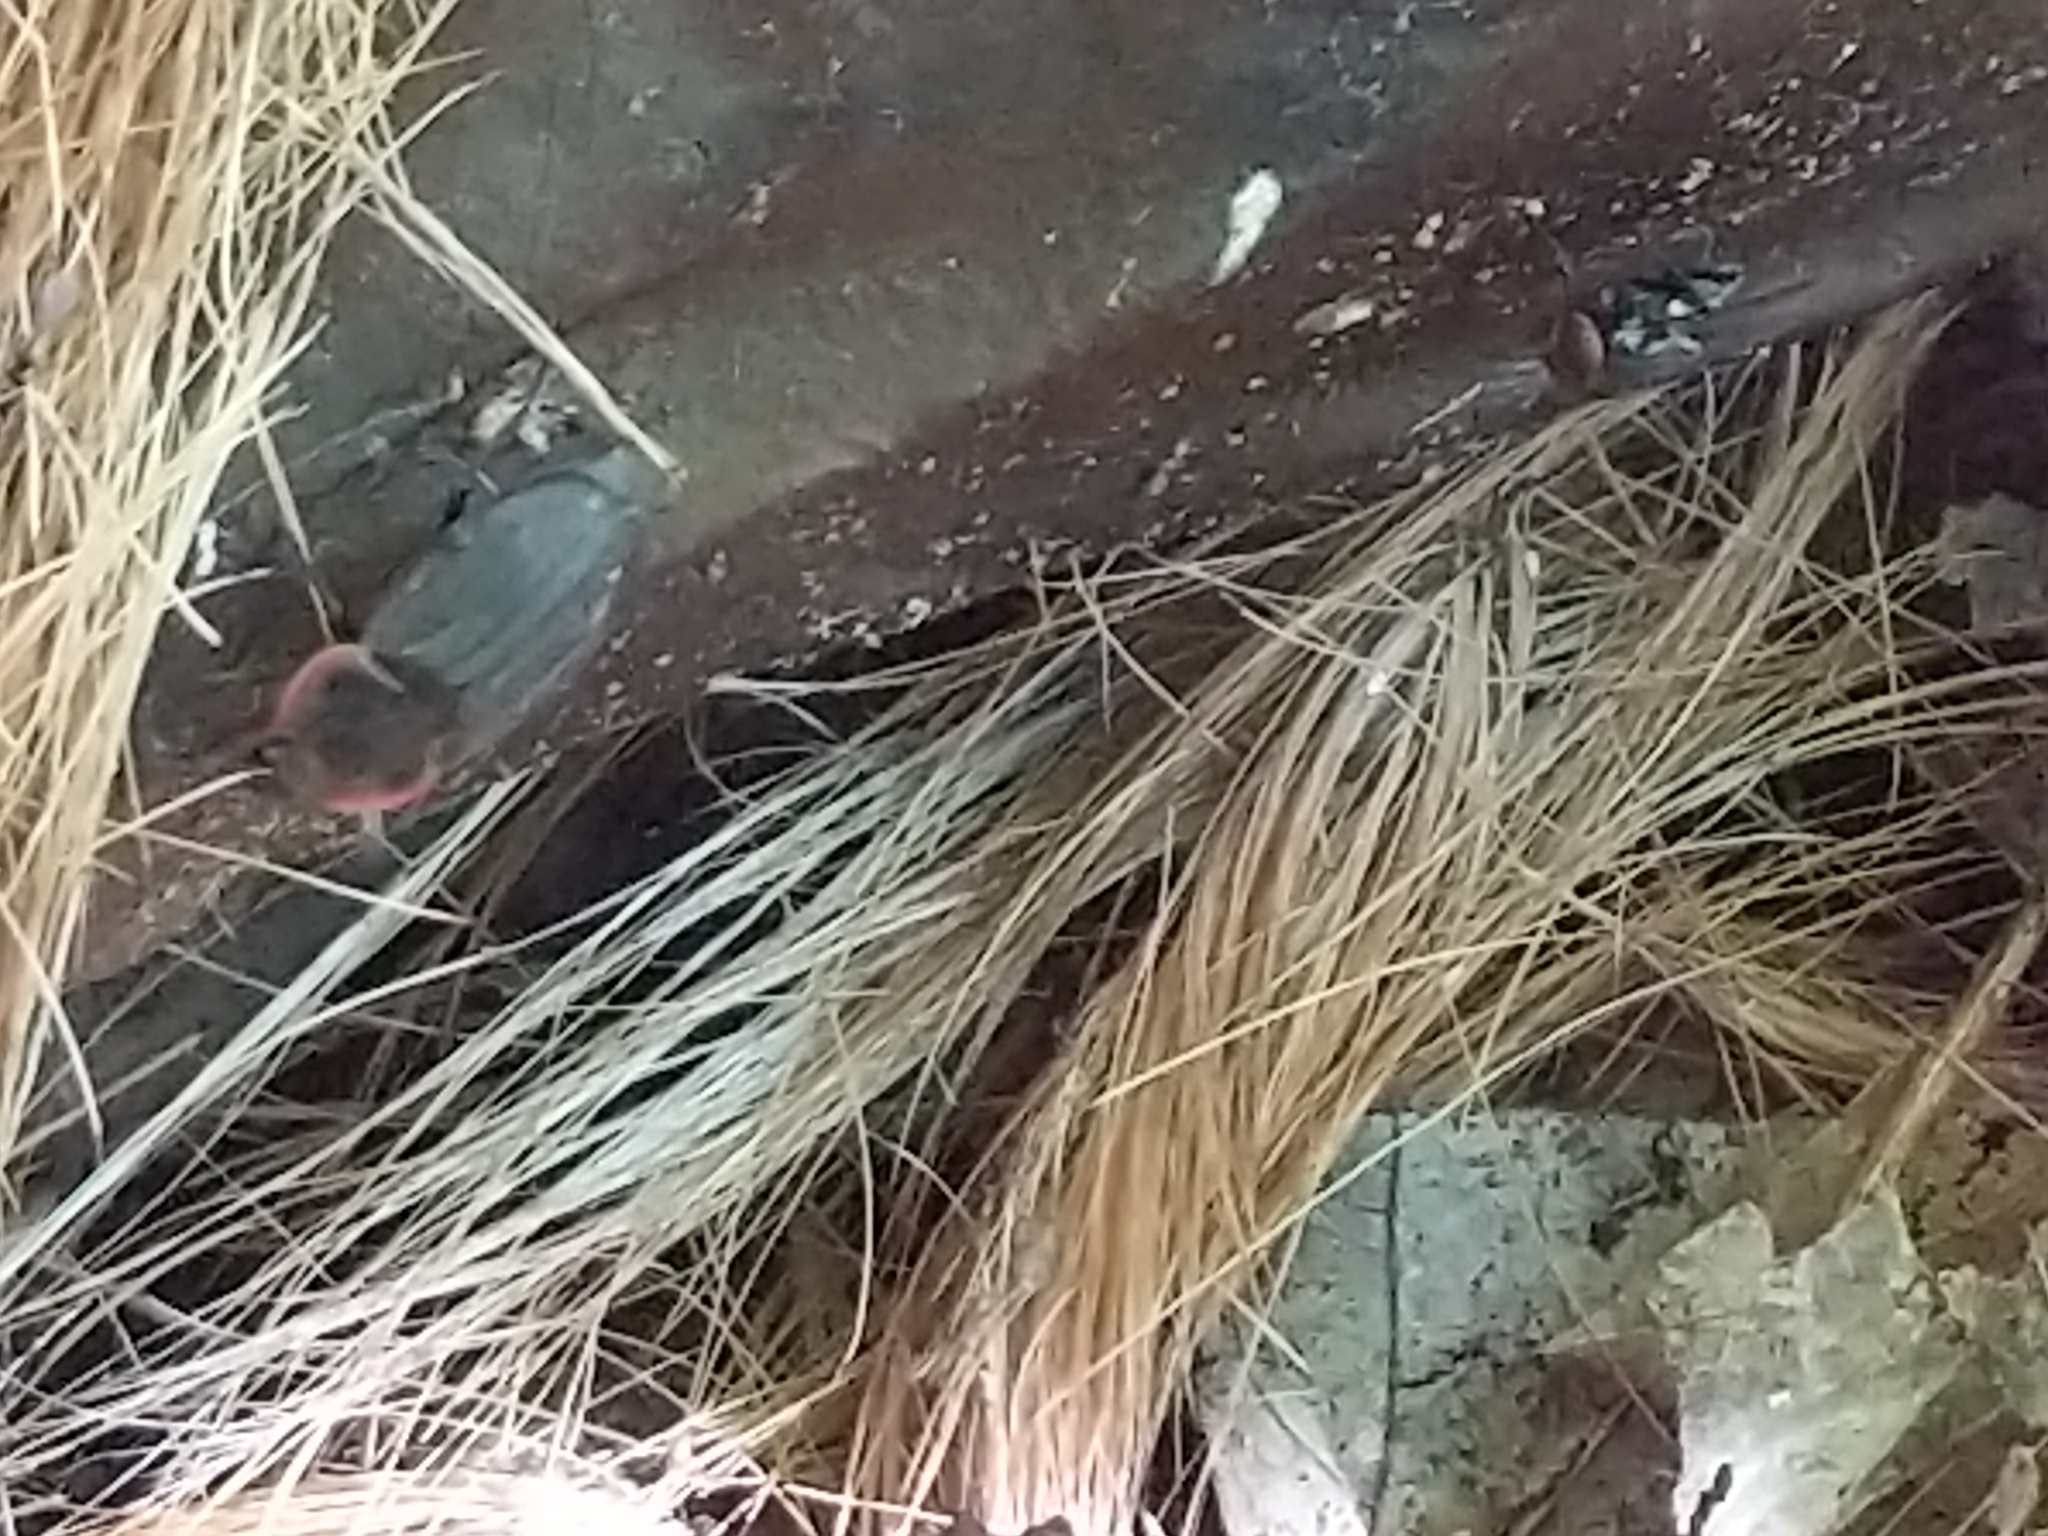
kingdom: Animalia
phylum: Arthropoda
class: Insecta
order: Coleoptera
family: Staphylinidae
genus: Oiceoptoma
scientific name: Oiceoptoma noveboracense
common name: Margined carrion beetle
